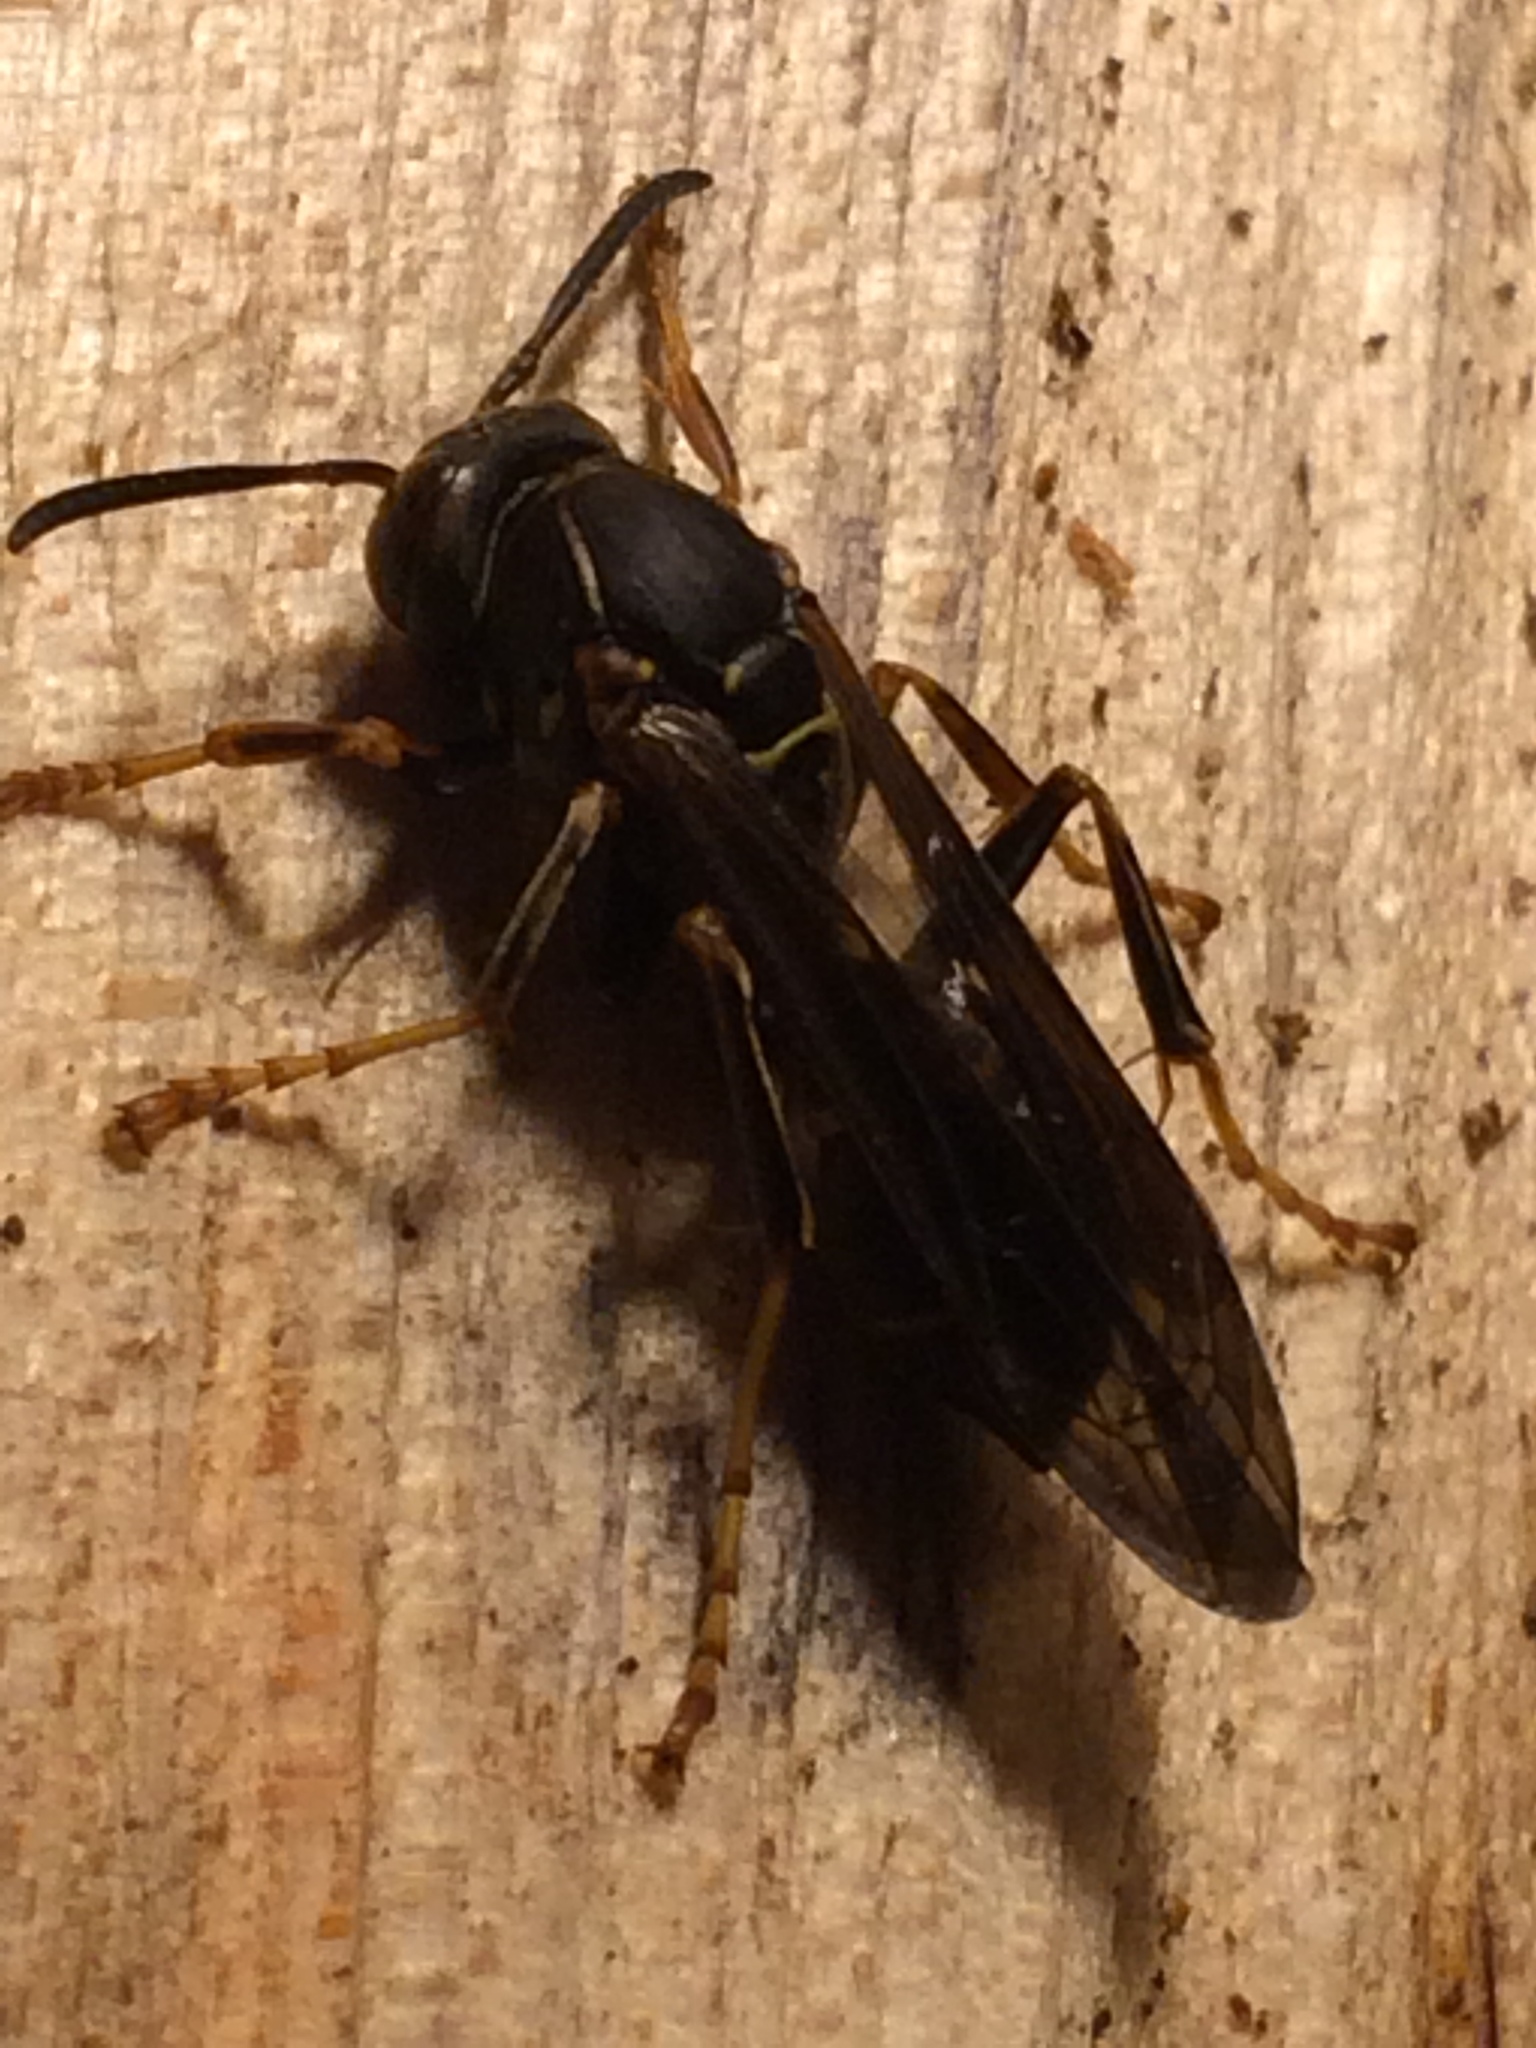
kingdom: Animalia
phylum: Arthropoda
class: Insecta
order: Hymenoptera
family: Eumenidae
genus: Polistes
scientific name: Polistes fuscatus
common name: Dark paper wasp
